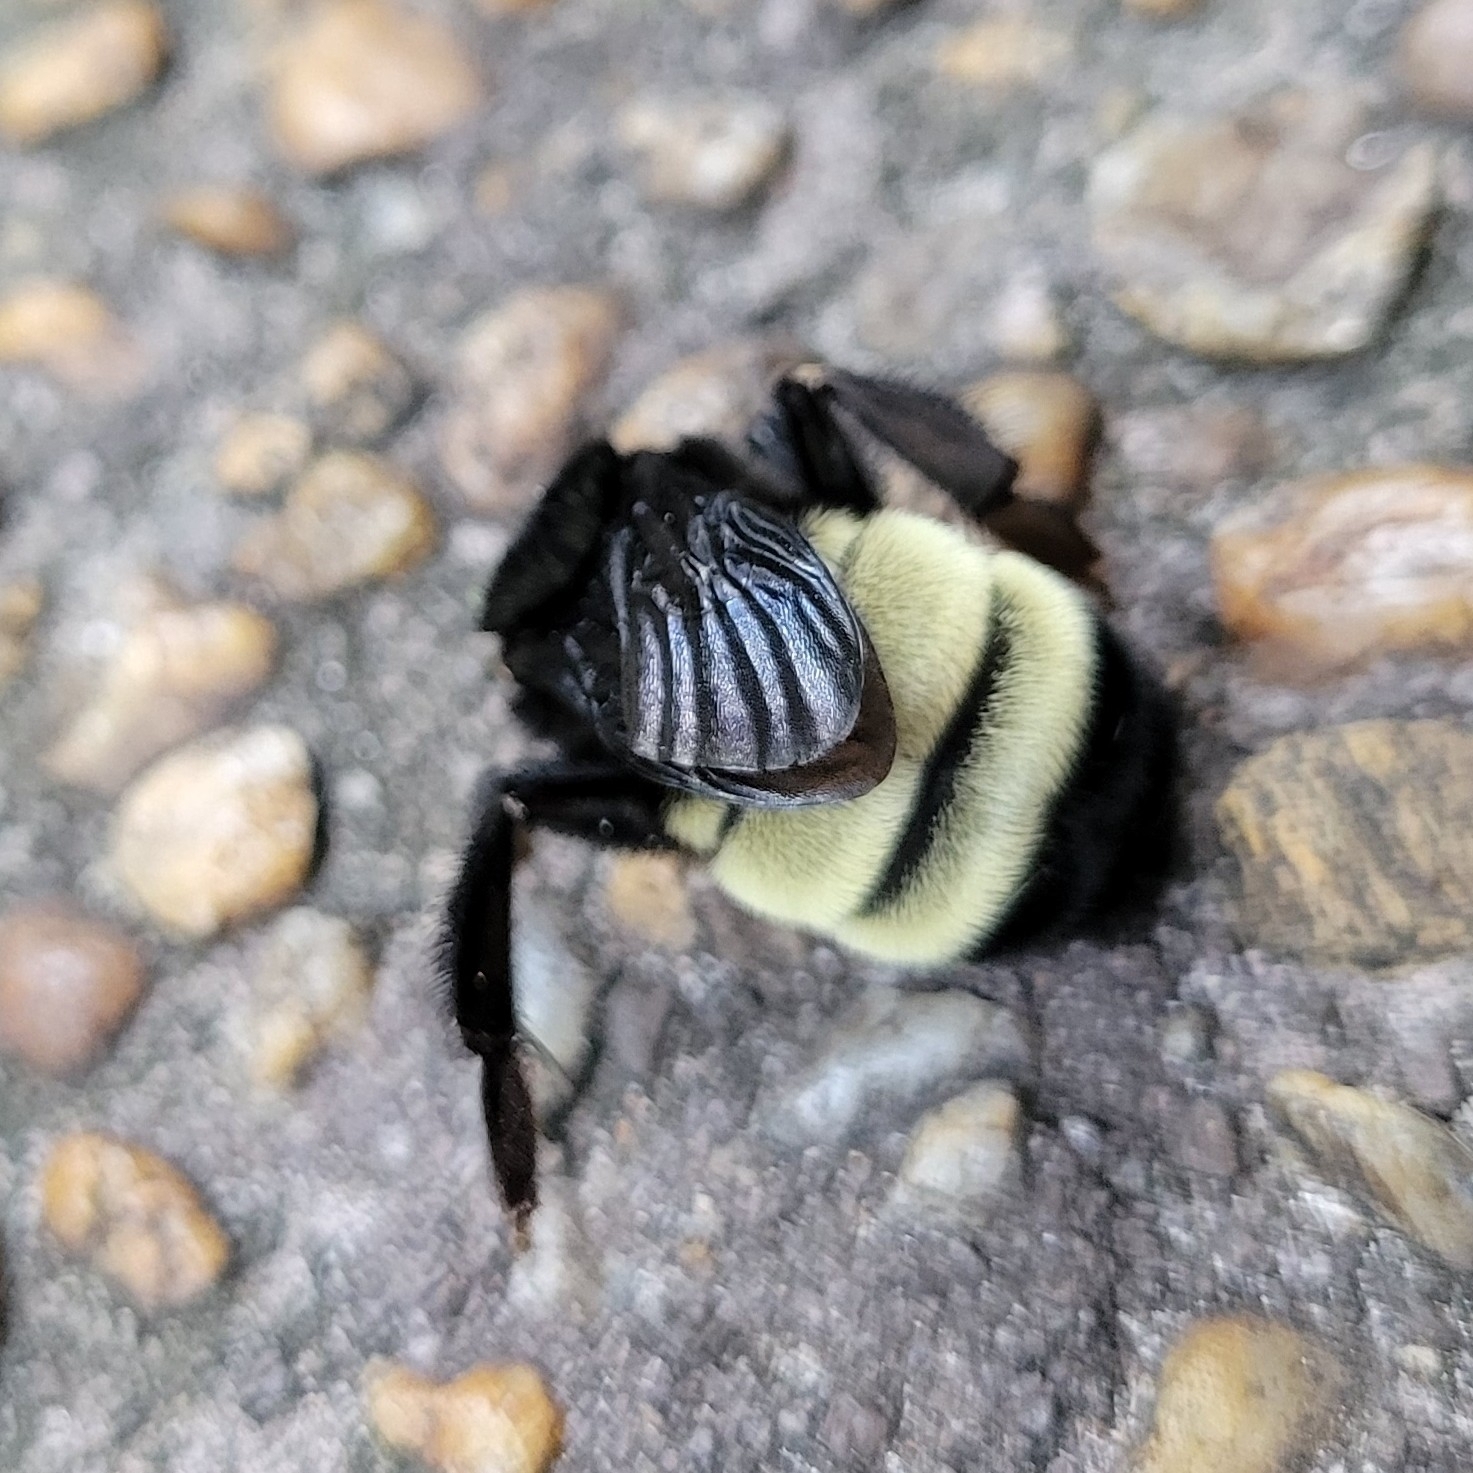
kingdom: Animalia
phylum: Arthropoda
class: Insecta
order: Hymenoptera
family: Apidae
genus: Bombus
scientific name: Bombus pensylvanicus
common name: Bumble bee
